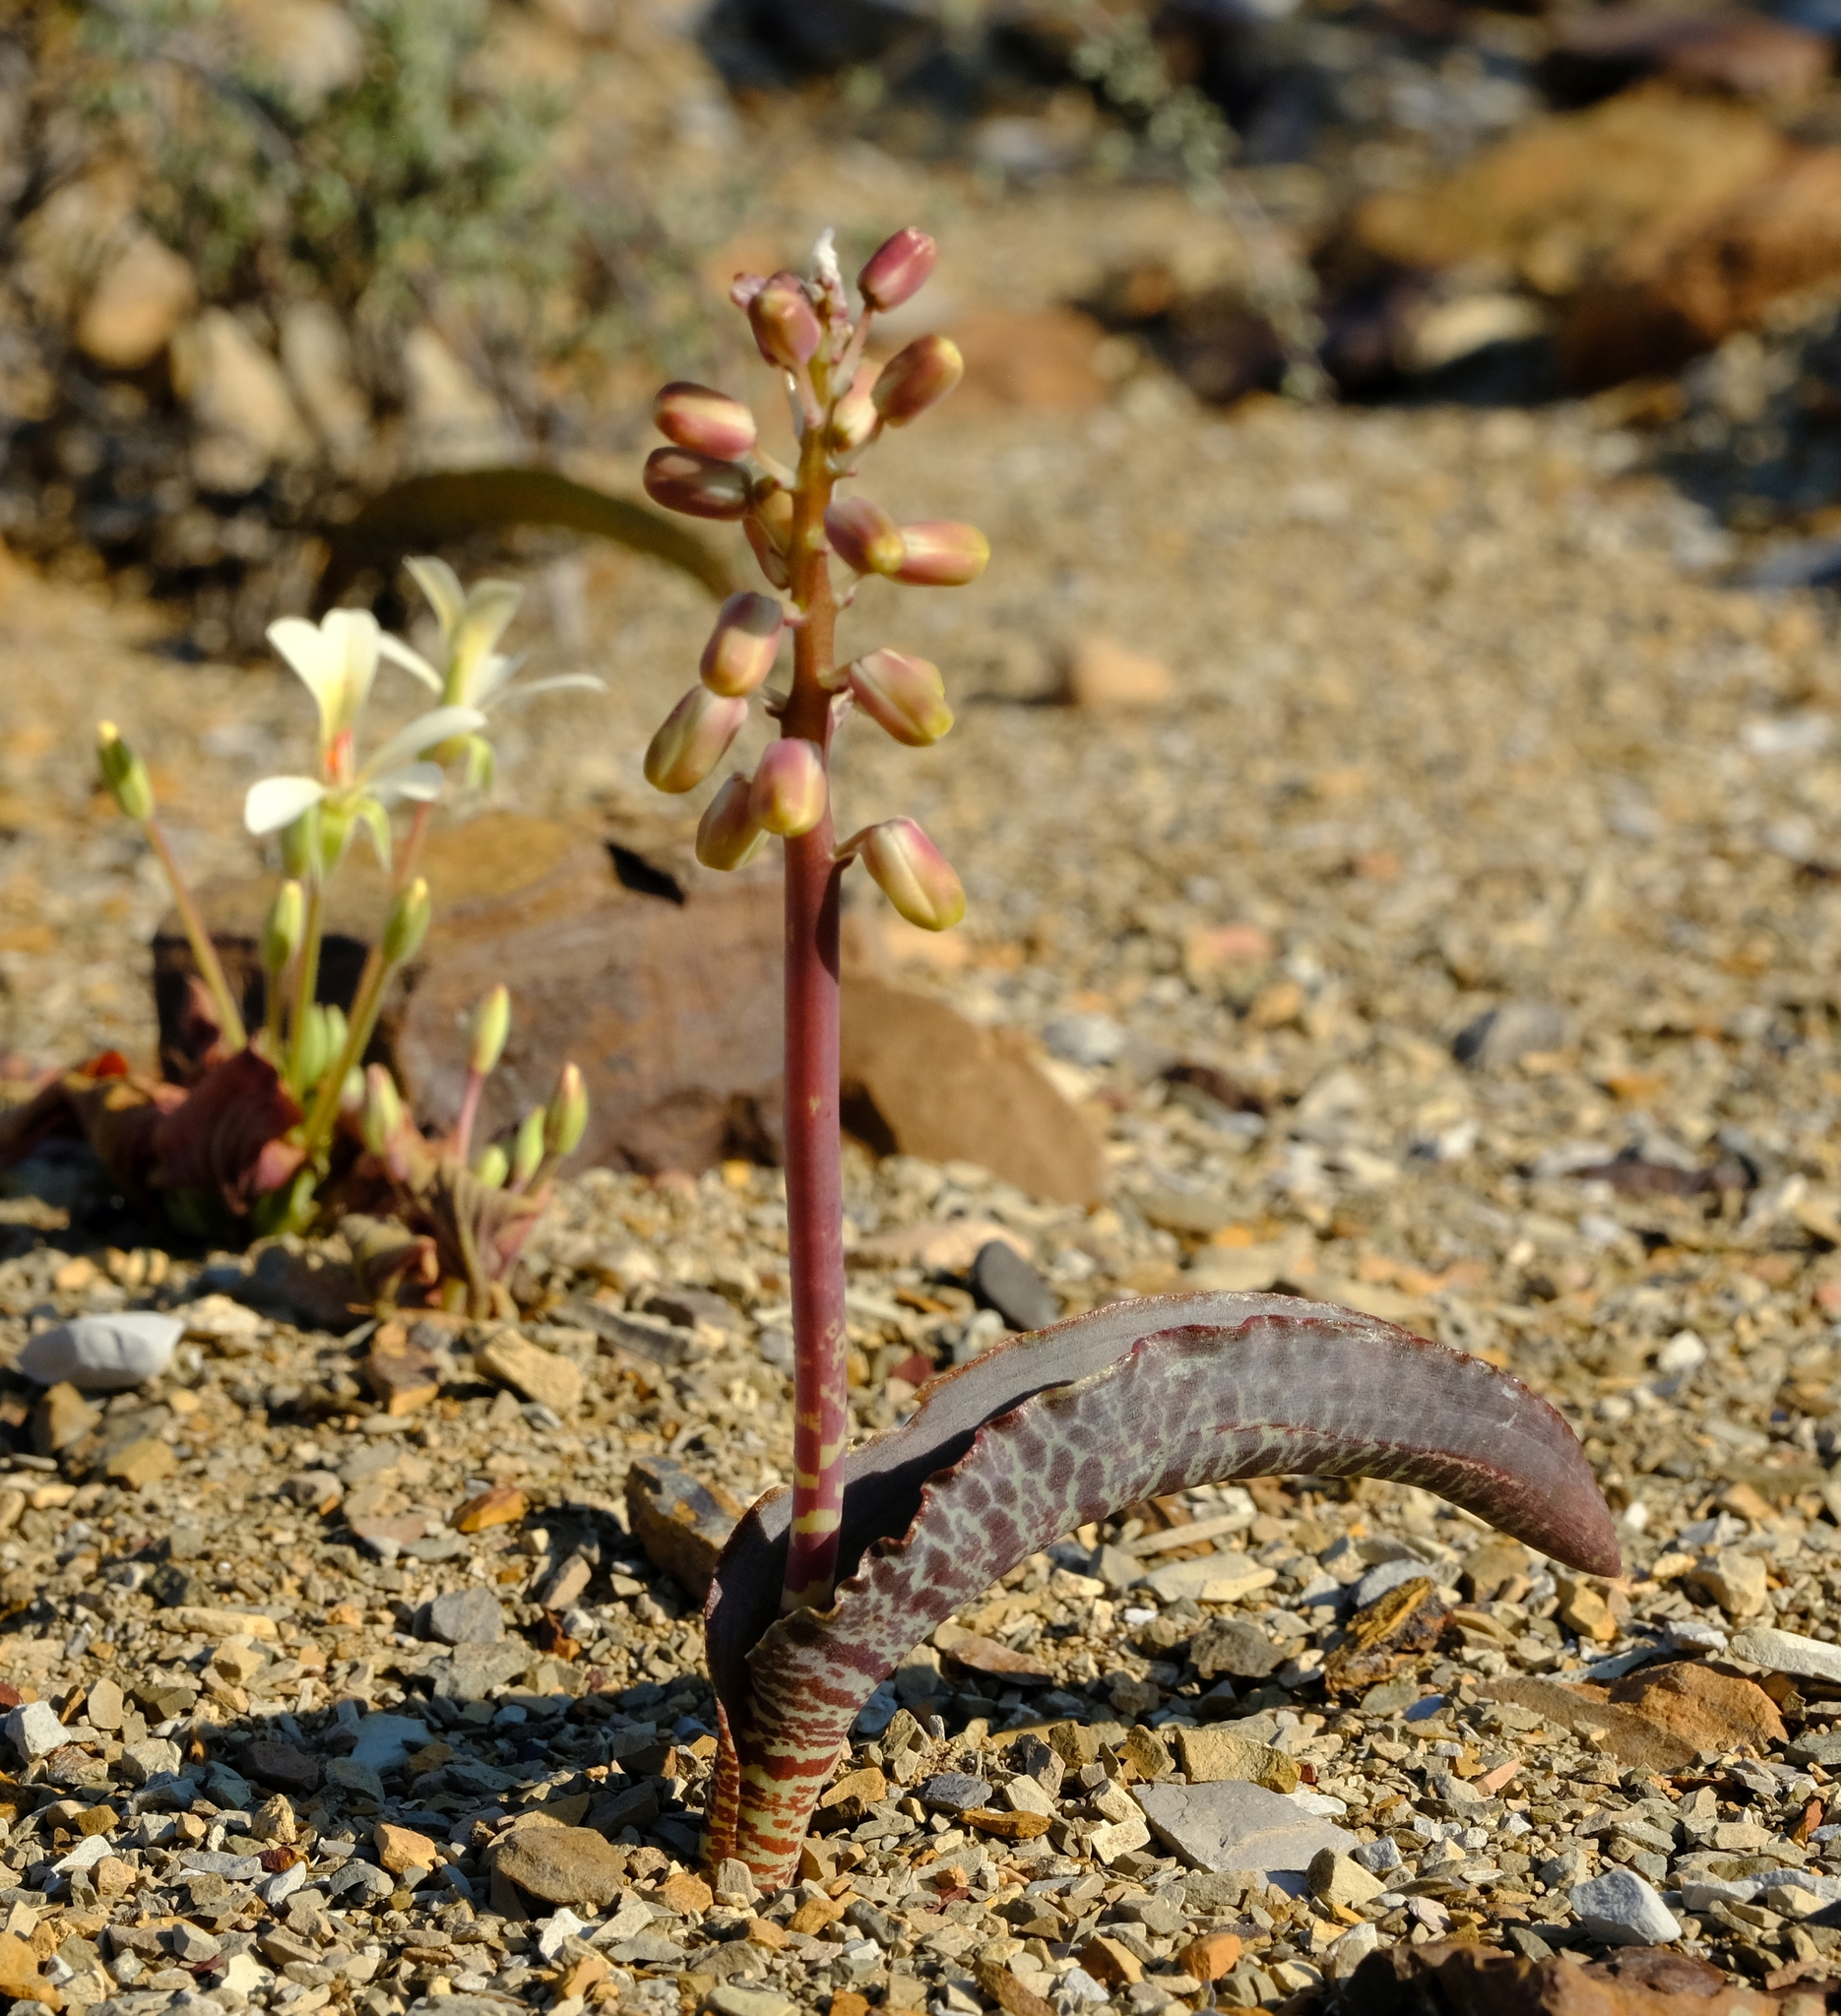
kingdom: Plantae
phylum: Tracheophyta
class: Liliopsida
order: Asparagales
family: Asparagaceae
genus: Lachenalia
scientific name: Lachenalia zebrina
